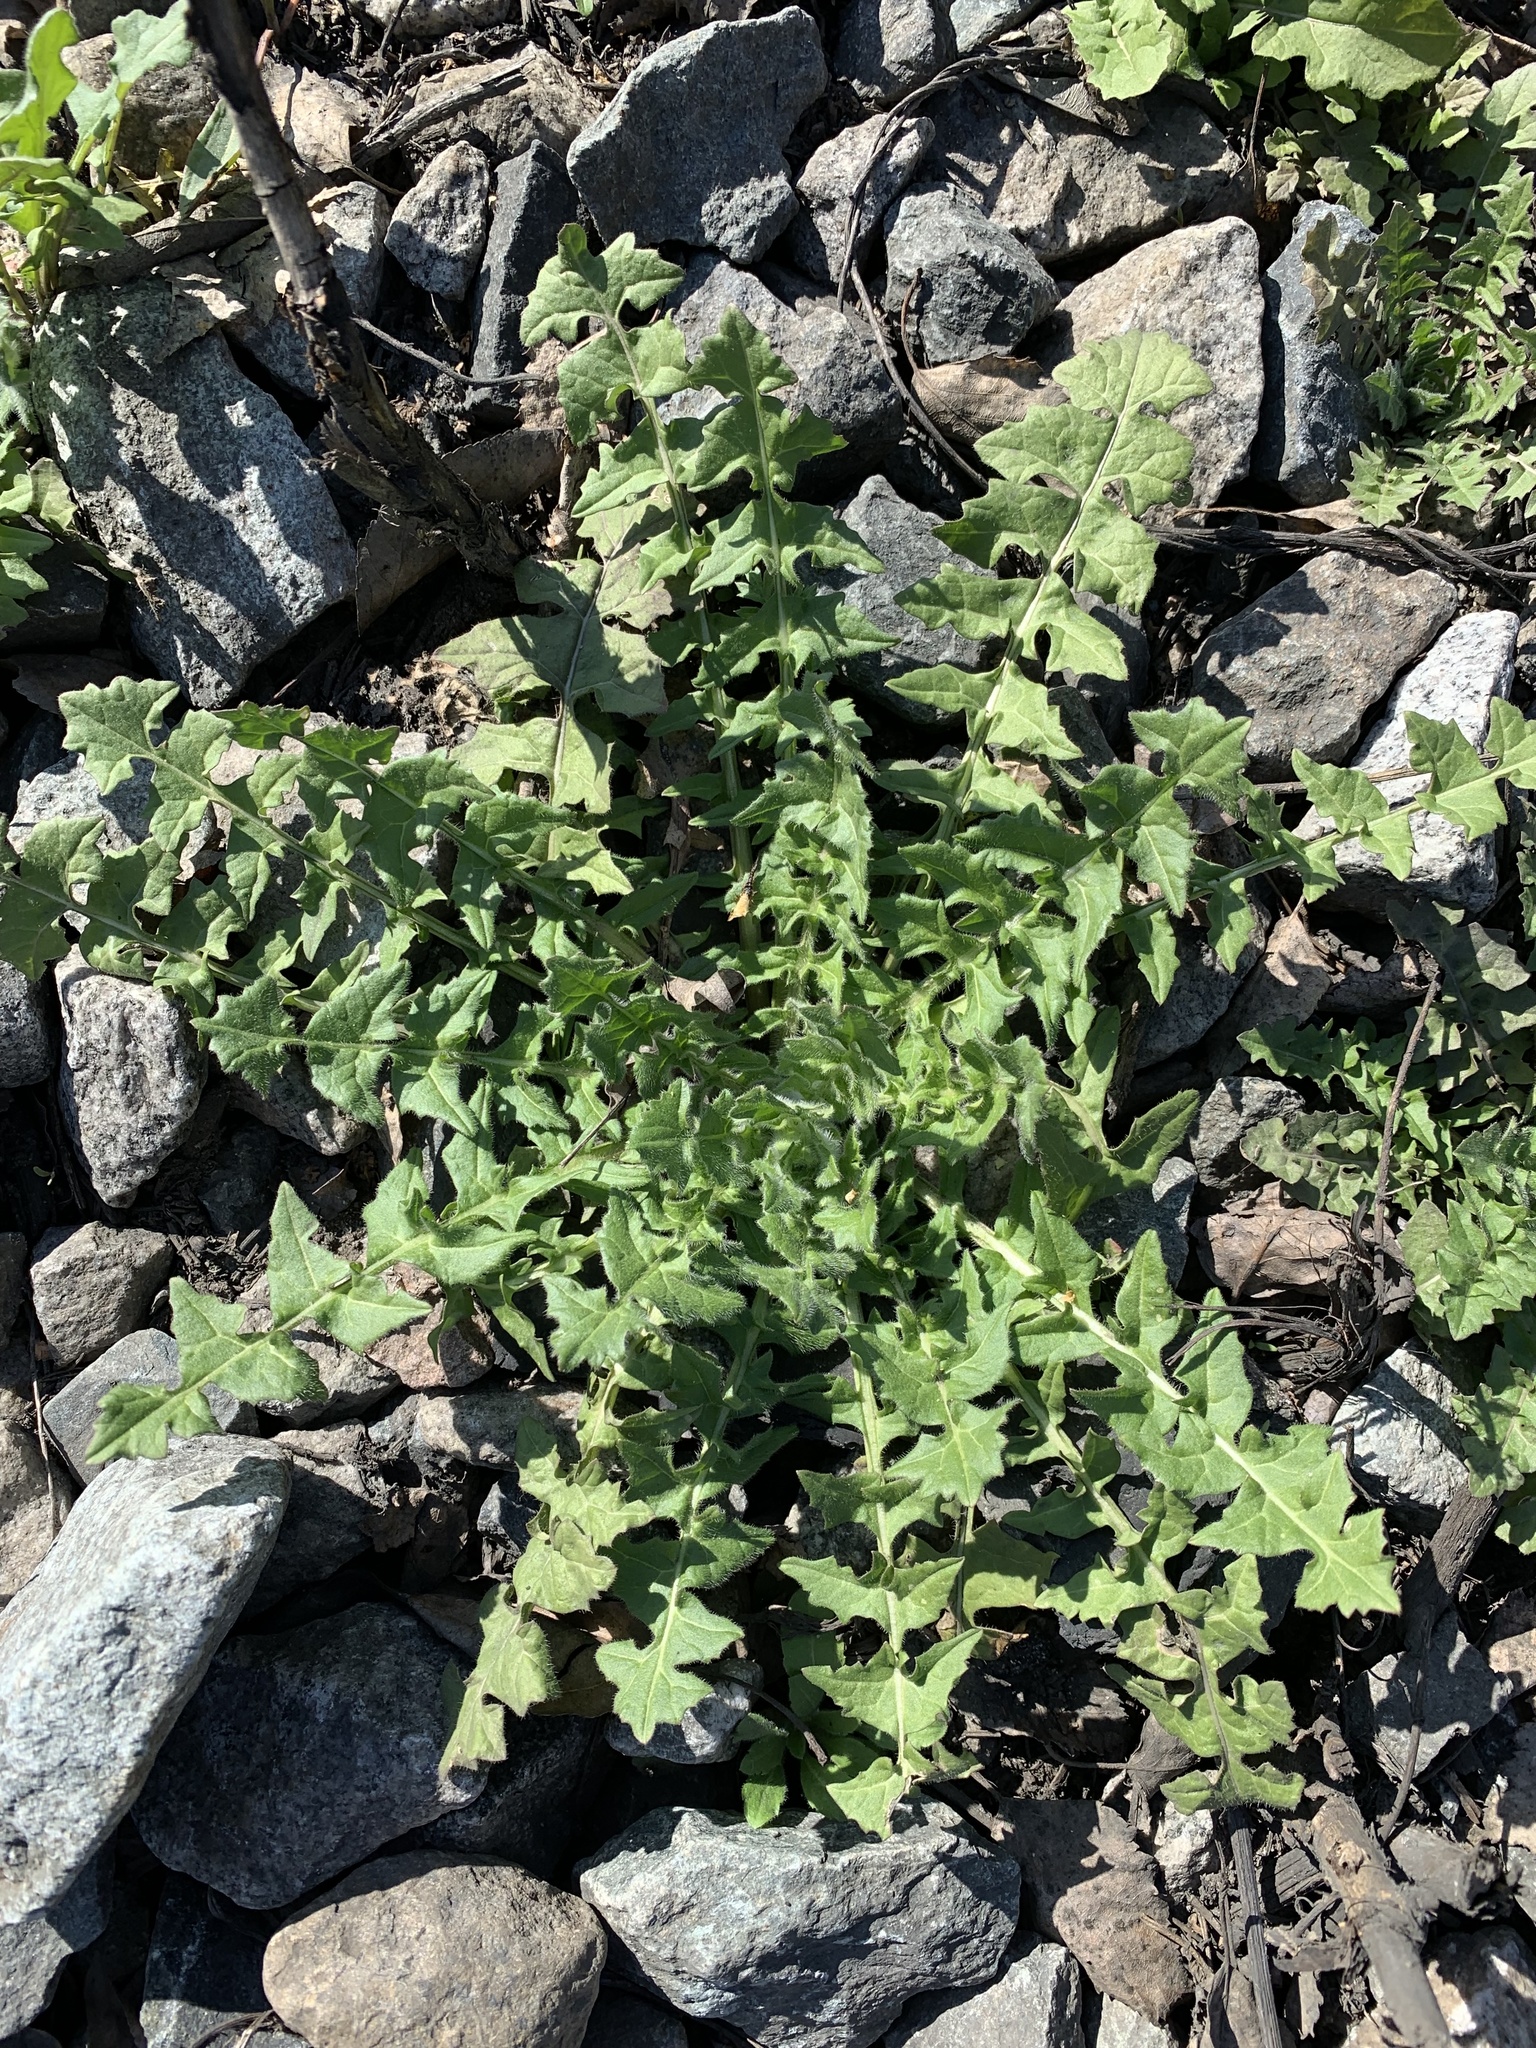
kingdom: Plantae
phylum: Tracheophyta
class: Magnoliopsida
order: Brassicales
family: Brassicaceae
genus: Sisymbrium
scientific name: Sisymbrium loeselii
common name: False london-rocket
